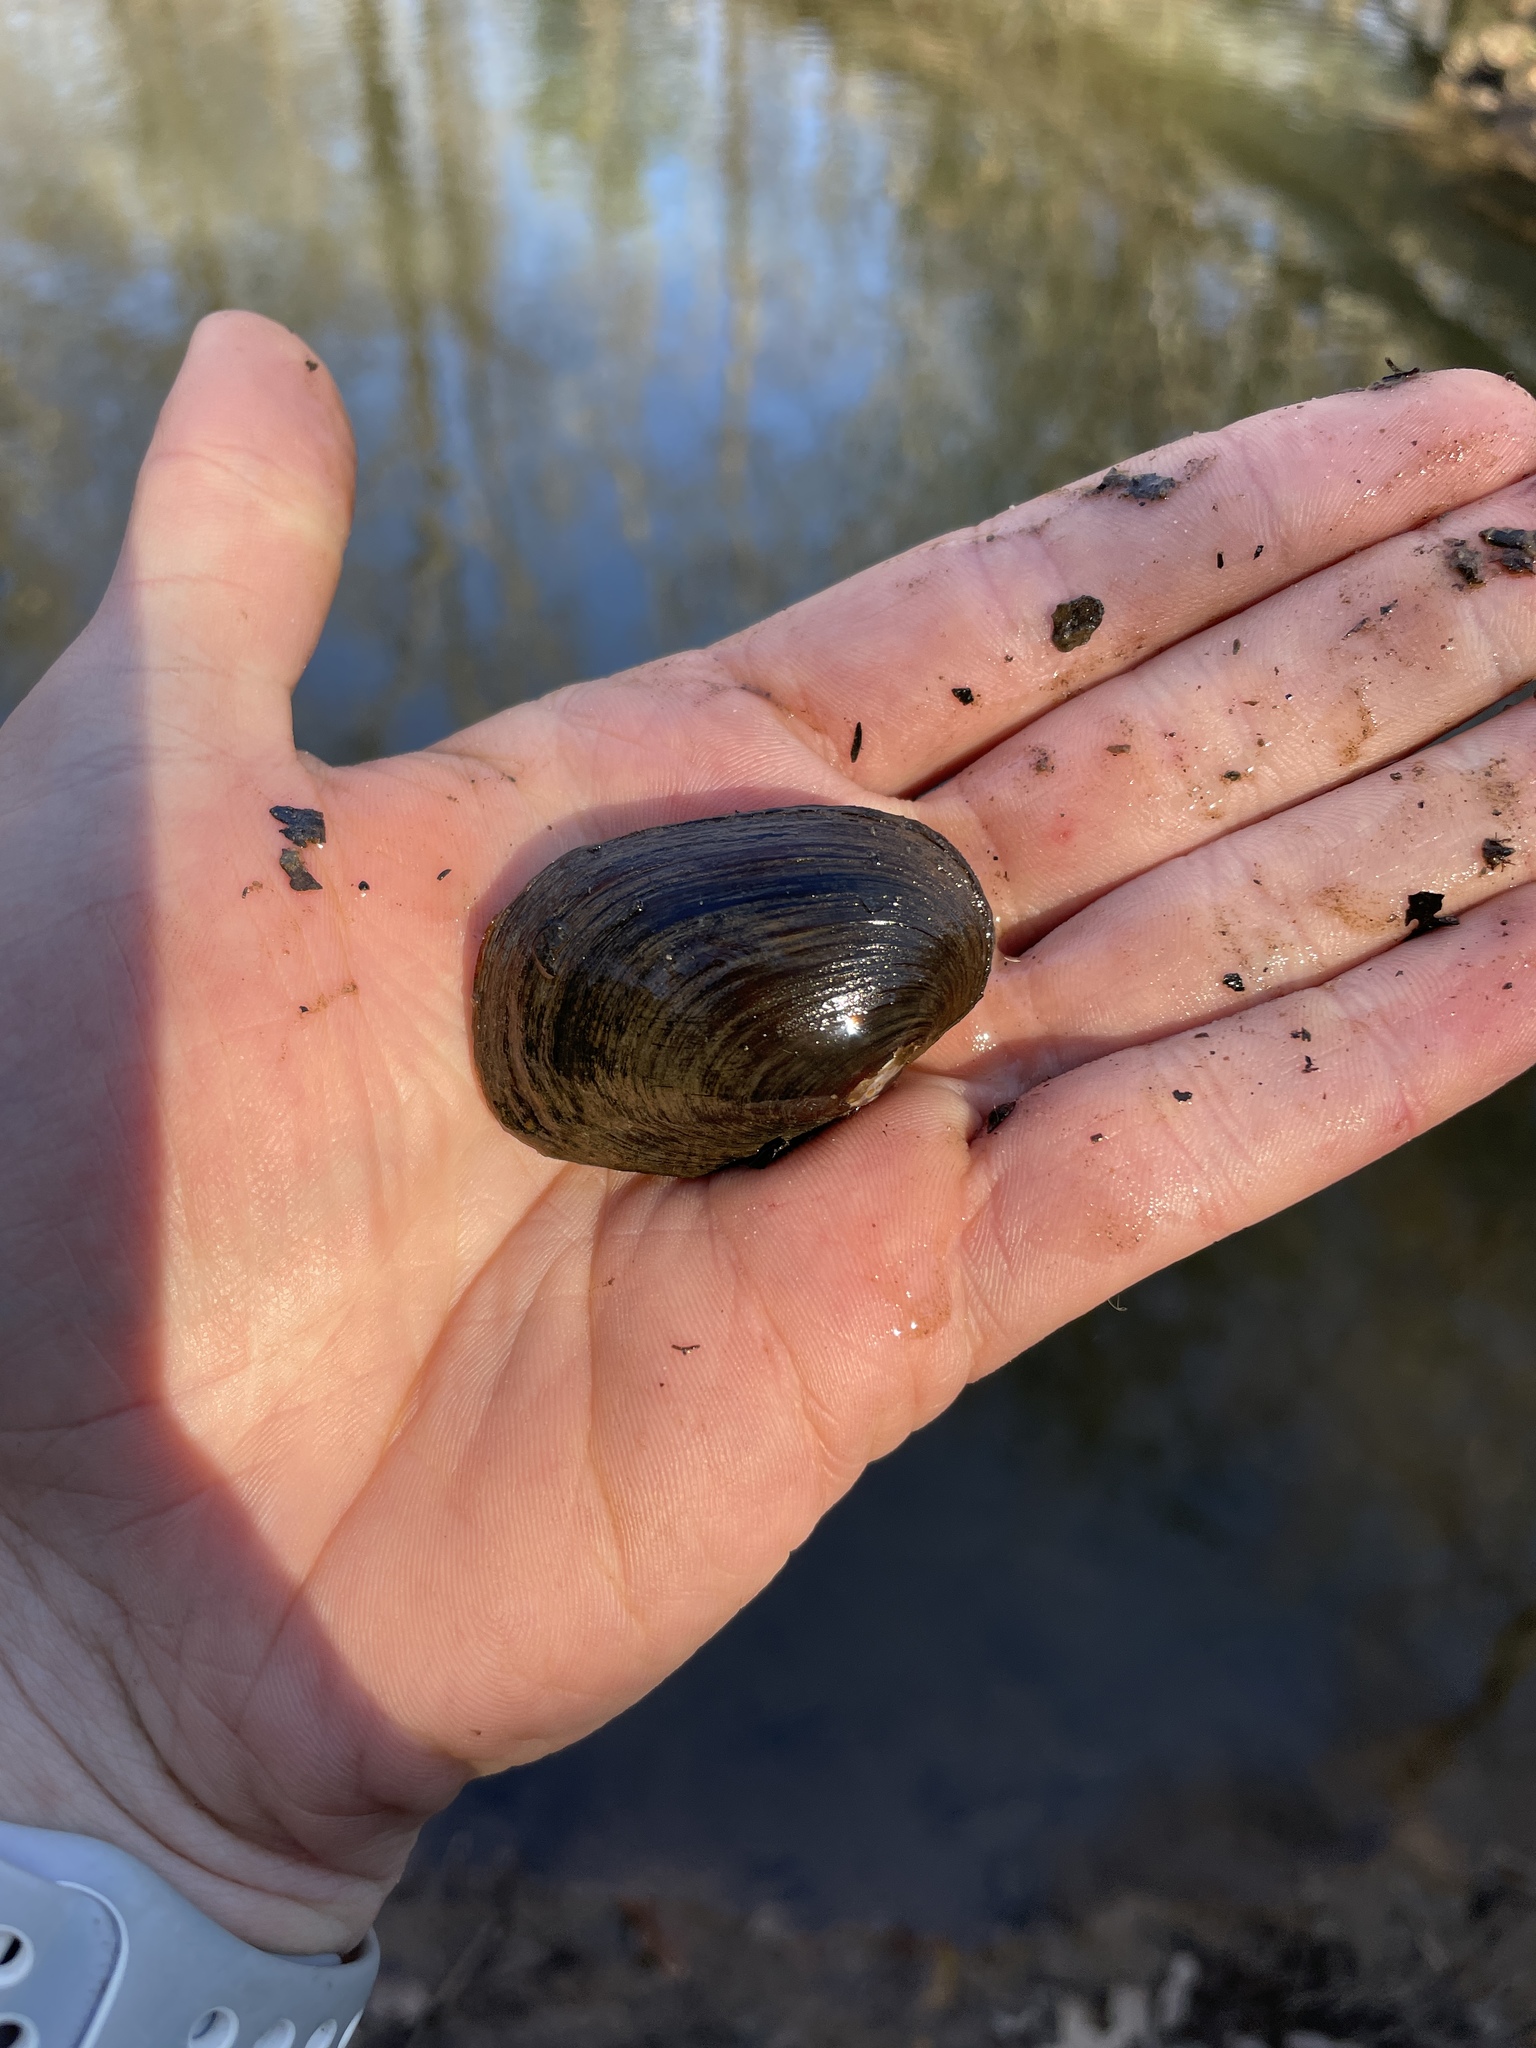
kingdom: Animalia
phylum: Mollusca
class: Bivalvia
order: Unionida
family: Unionidae
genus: Leaunio
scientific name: Leaunio lienosus
